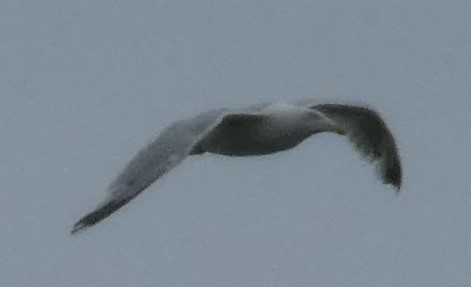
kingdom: Animalia
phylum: Chordata
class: Aves
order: Charadriiformes
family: Laridae
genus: Larus
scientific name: Larus argentatus
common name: Herring gull
